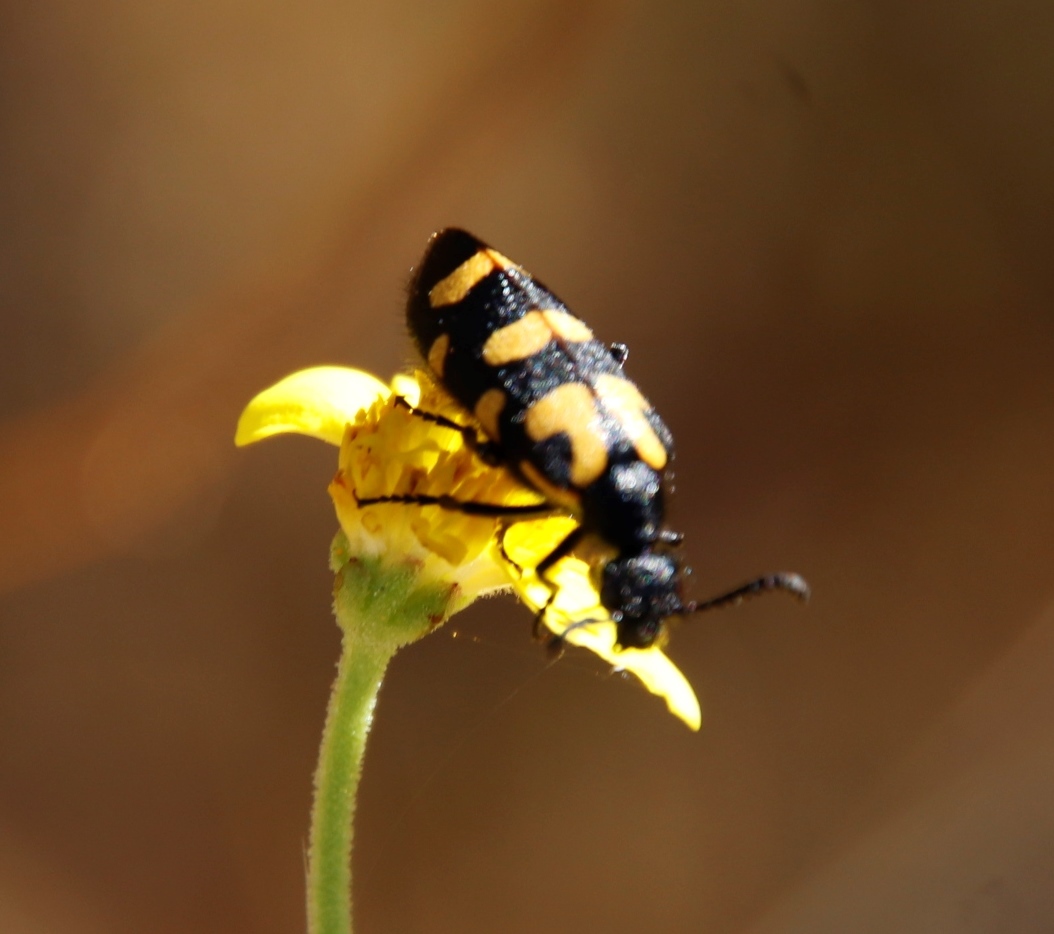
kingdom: Animalia
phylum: Arthropoda
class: Insecta
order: Coleoptera
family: Meloidae
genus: Ceroctis
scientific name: Ceroctis capensis
